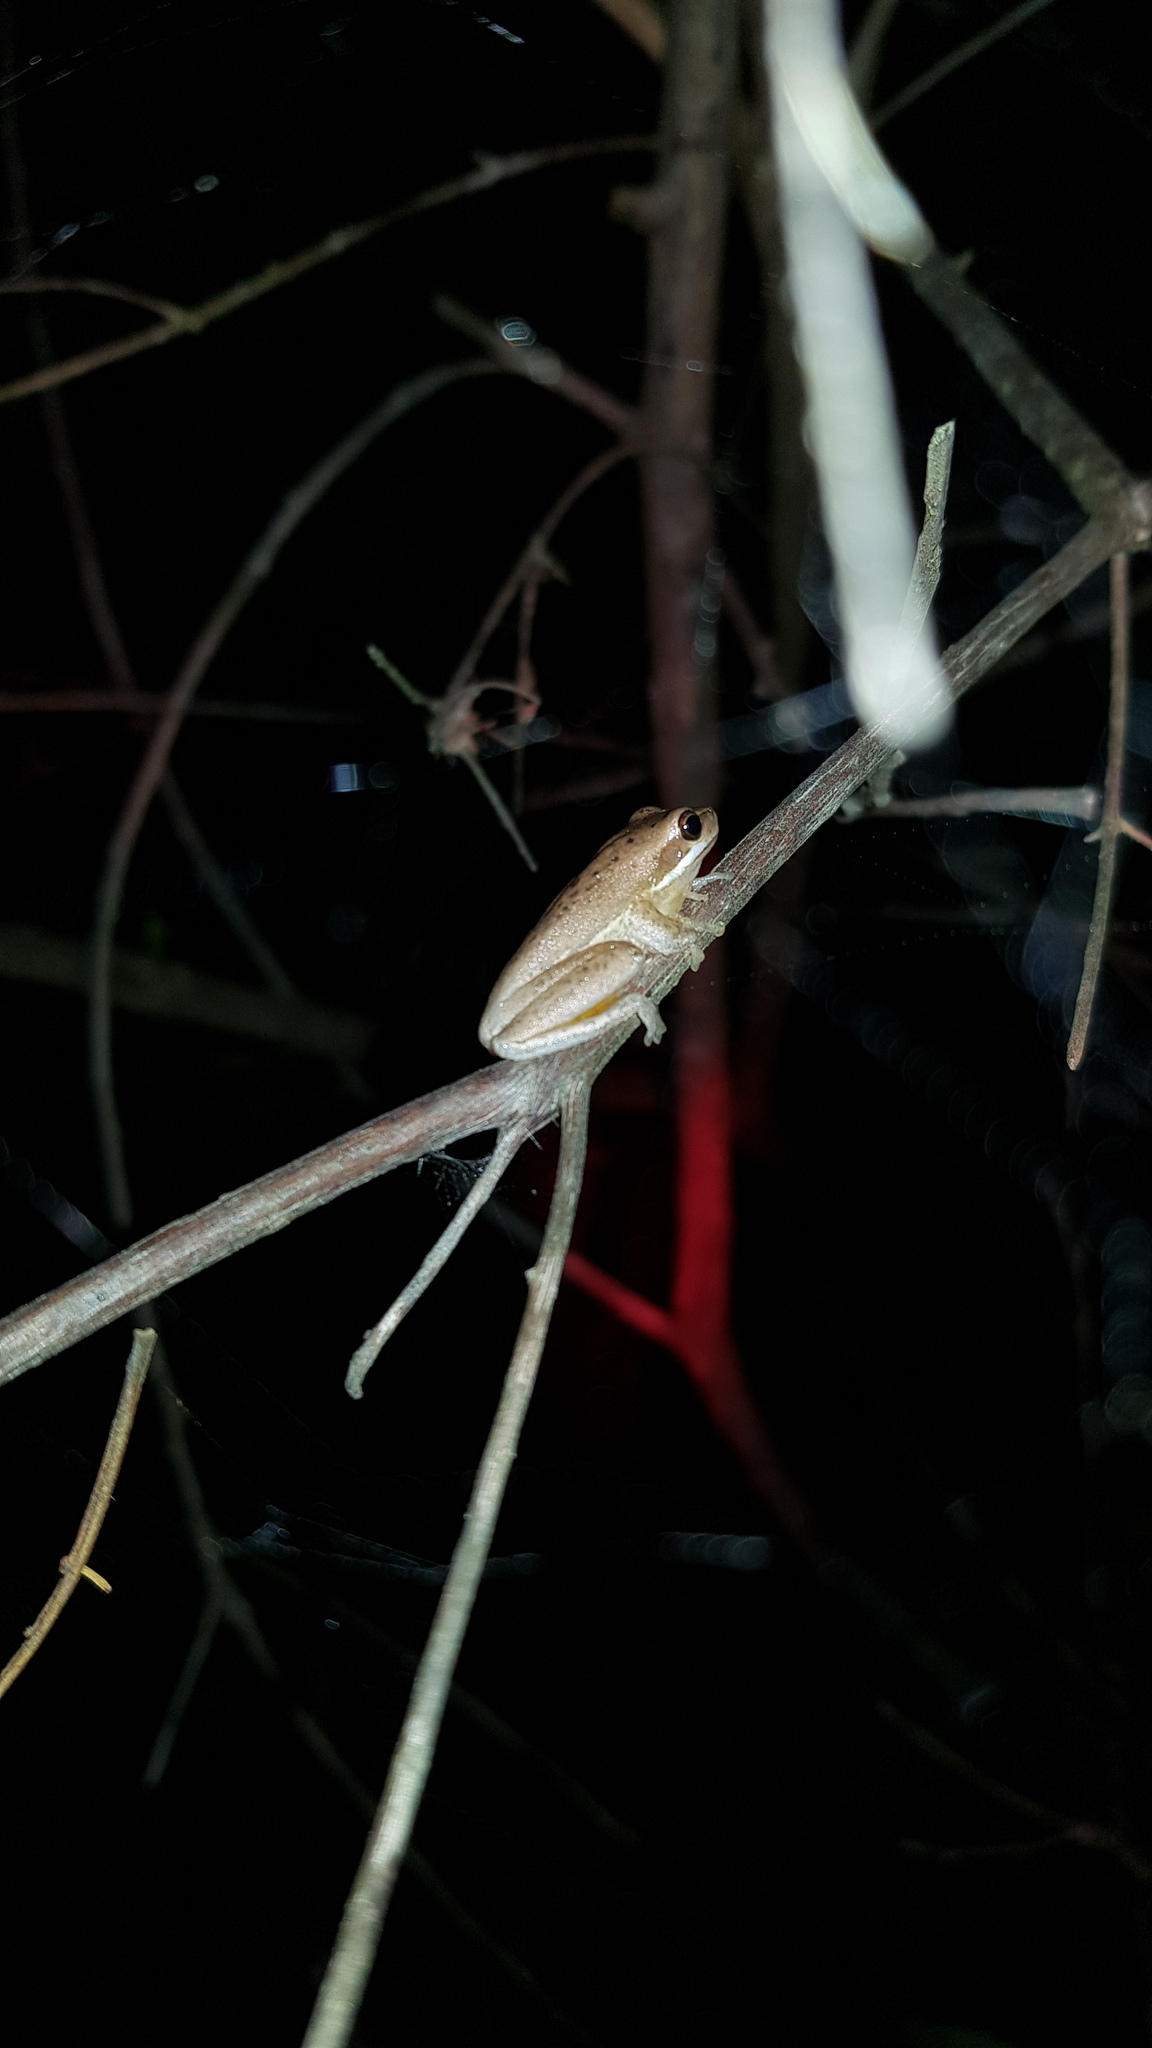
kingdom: Animalia
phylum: Chordata
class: Amphibia
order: Anura
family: Pelodryadidae
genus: Litoria
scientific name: Litoria fallax
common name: Eastern dwarf treefrog
